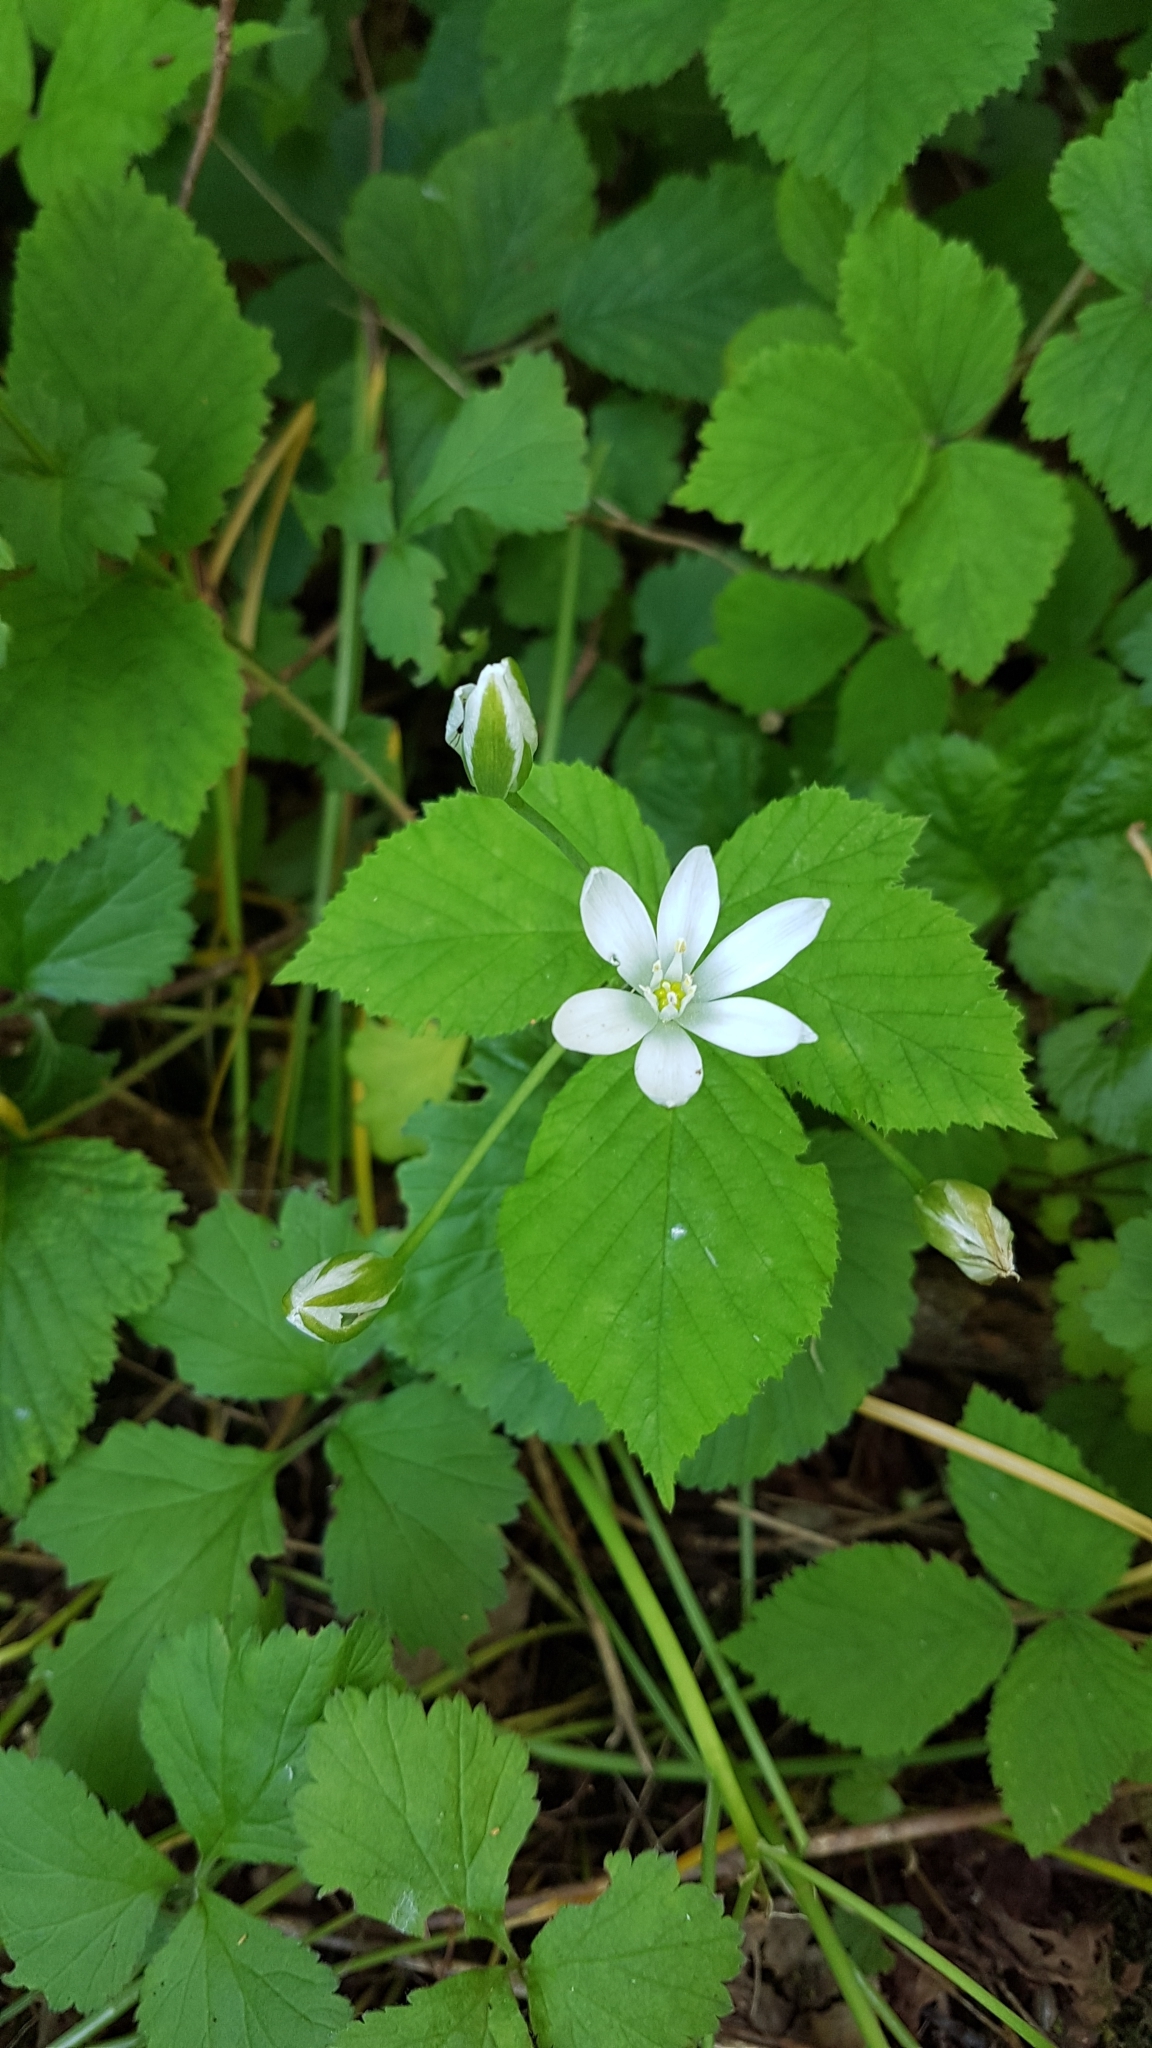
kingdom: Plantae
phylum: Tracheophyta
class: Liliopsida
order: Asparagales
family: Asparagaceae
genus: Ornithogalum
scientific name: Ornithogalum umbellatum
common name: Garden star-of-bethlehem
